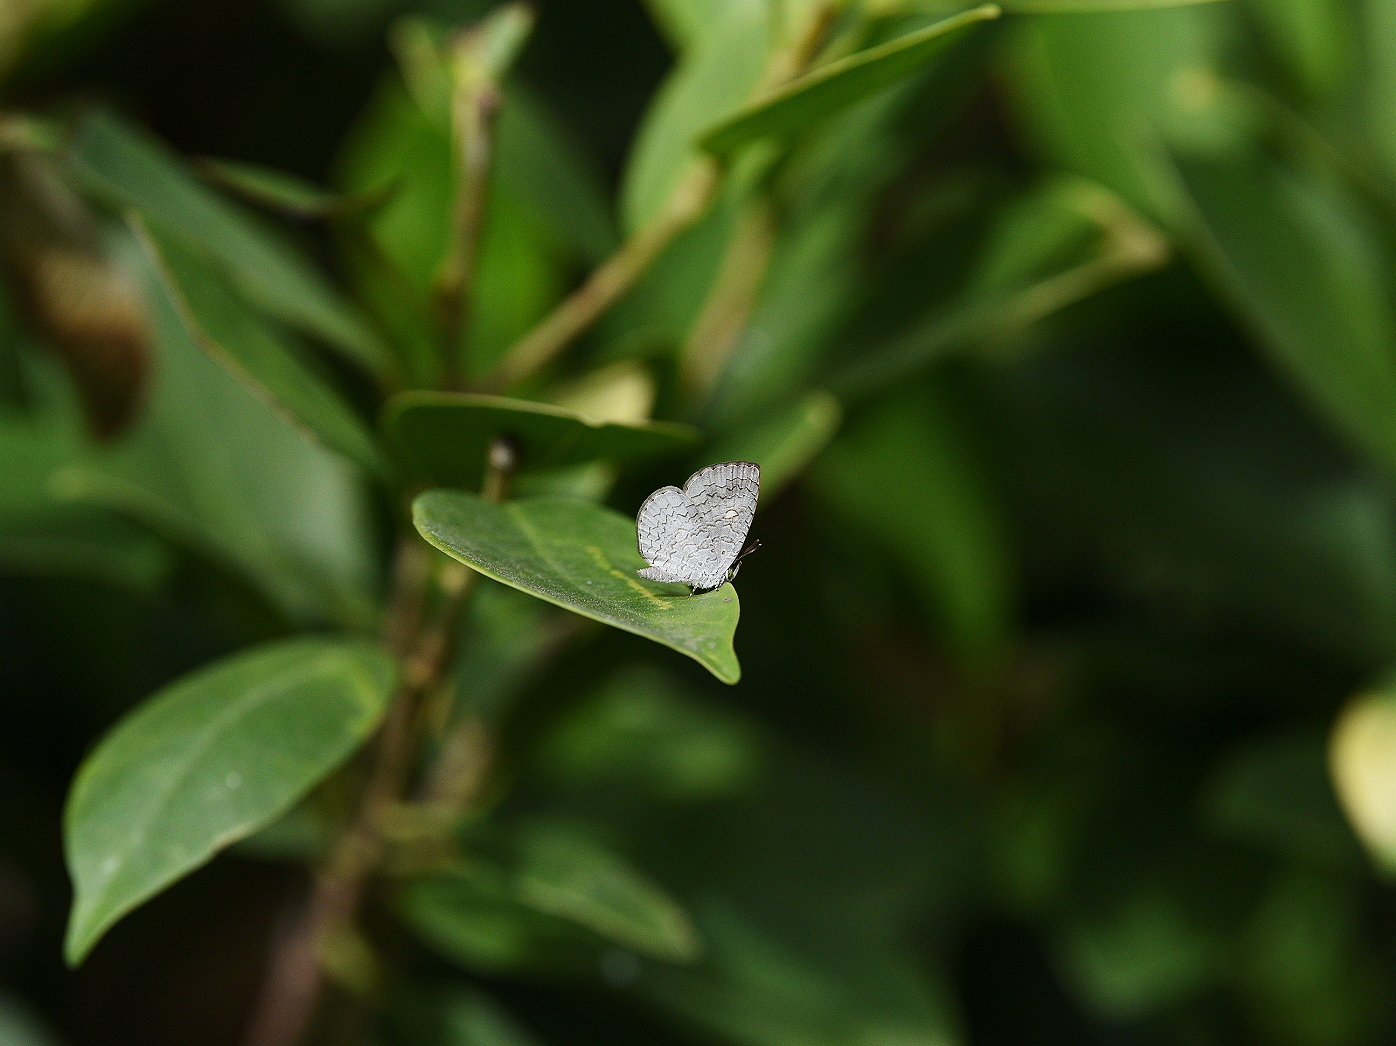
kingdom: Animalia
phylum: Arthropoda
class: Insecta
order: Lepidoptera
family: Lycaenidae
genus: Spalgis
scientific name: Spalgis epius
